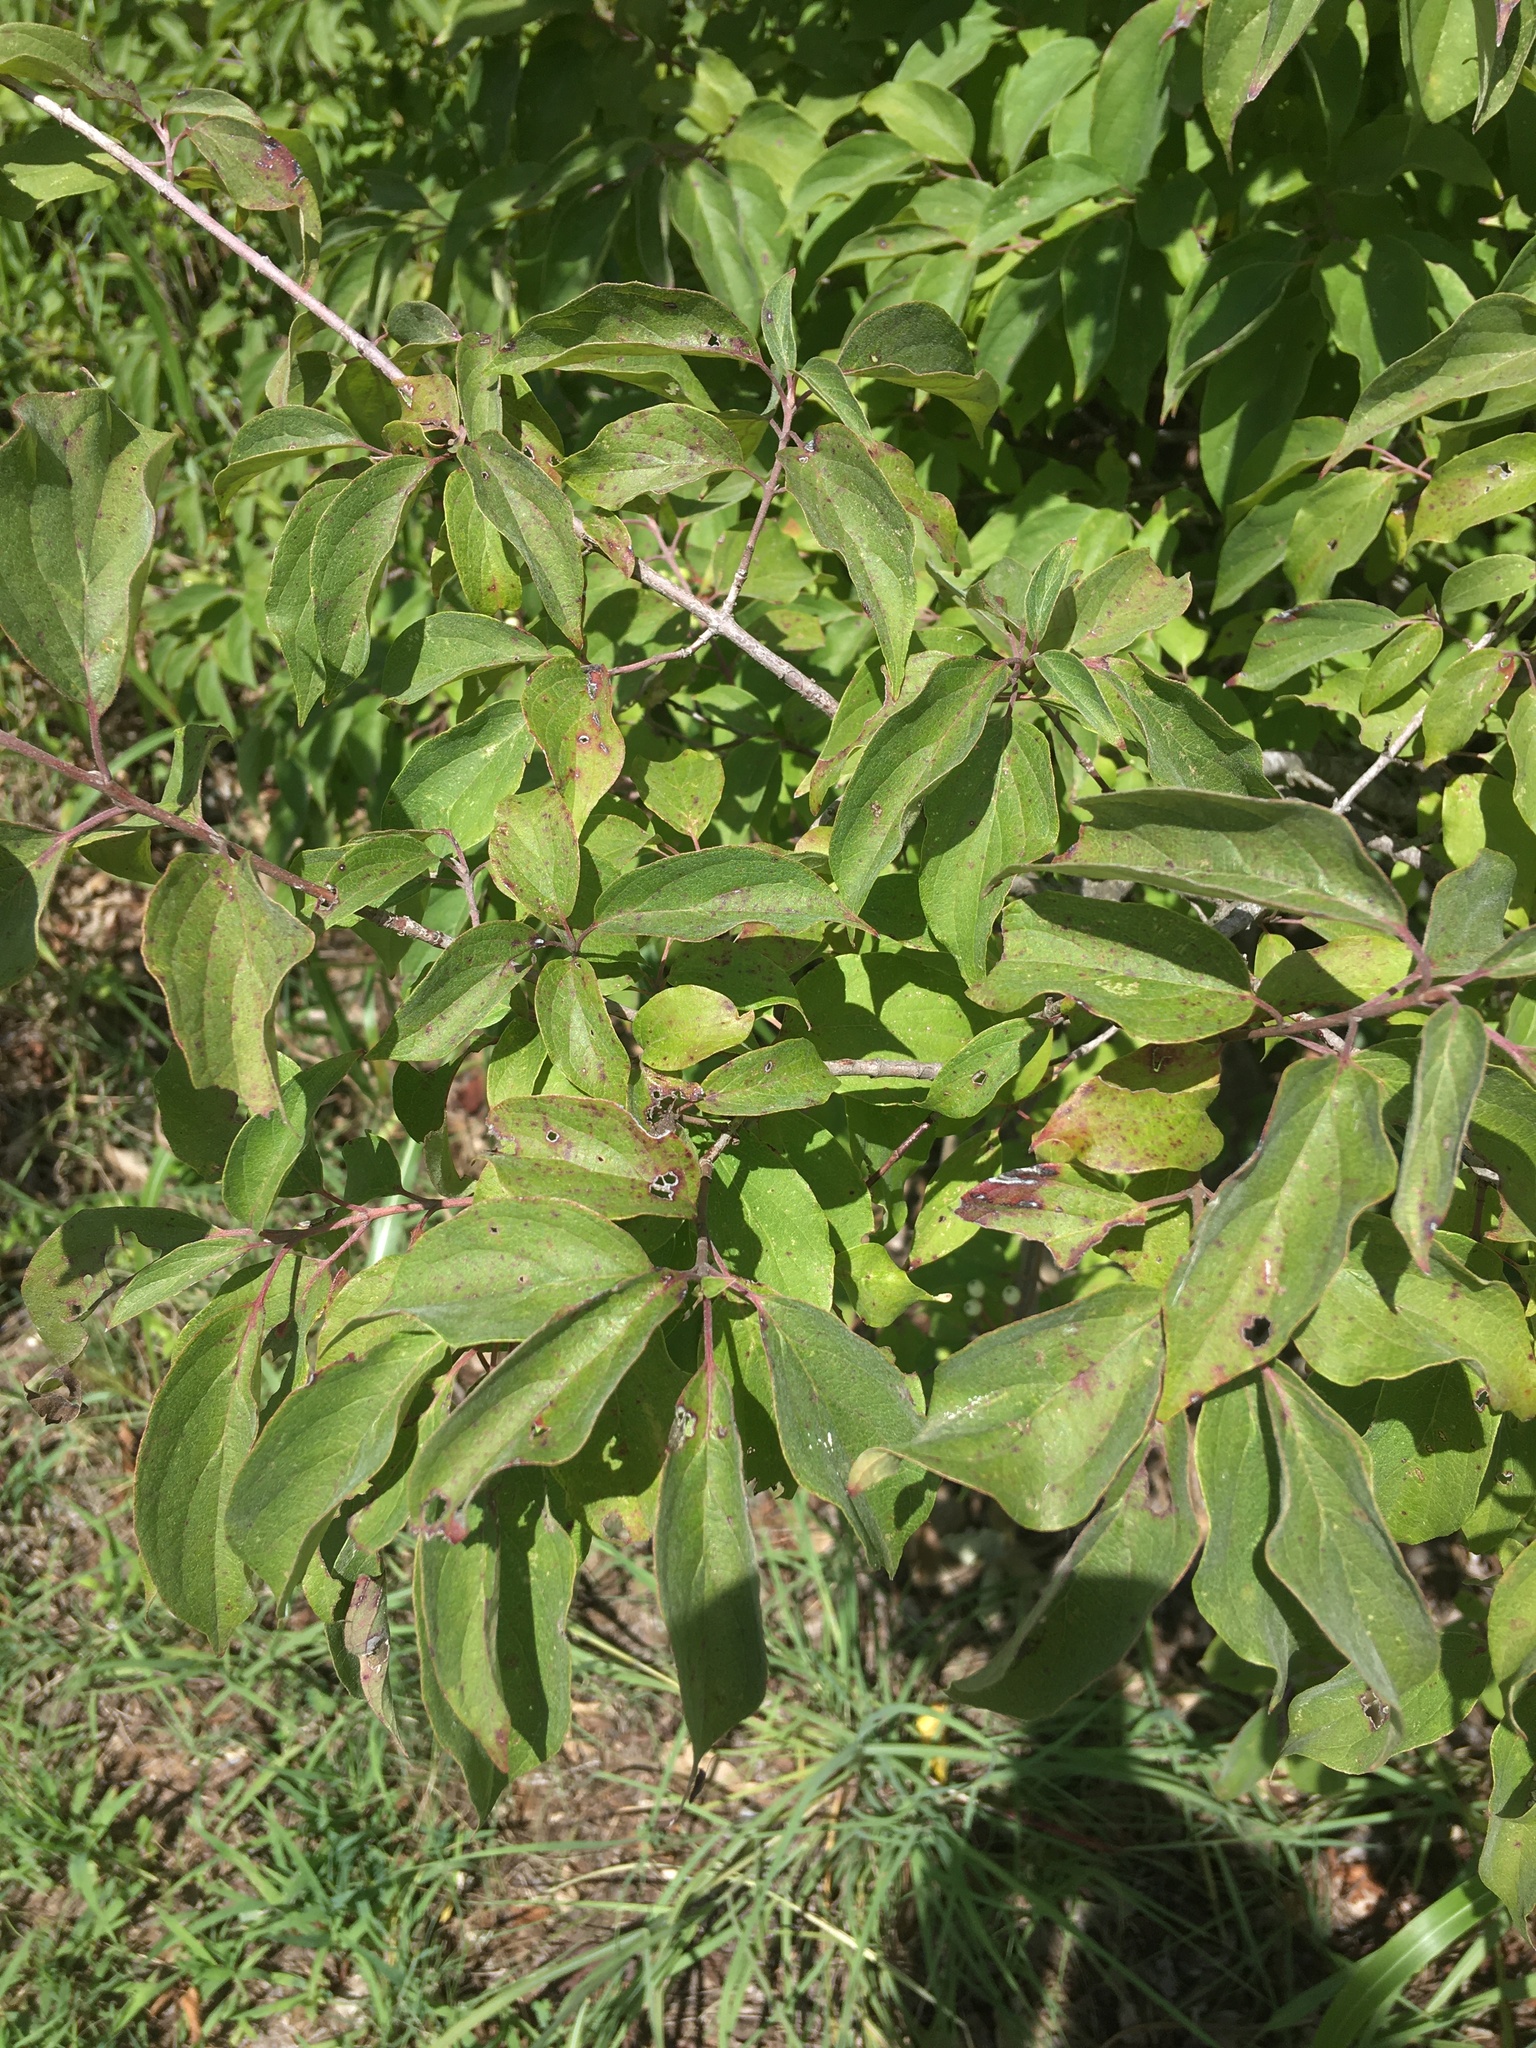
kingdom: Plantae
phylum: Tracheophyta
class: Magnoliopsida
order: Cornales
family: Cornaceae
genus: Cornus
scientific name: Cornus drummondii
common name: Rough-leaf dogwood
